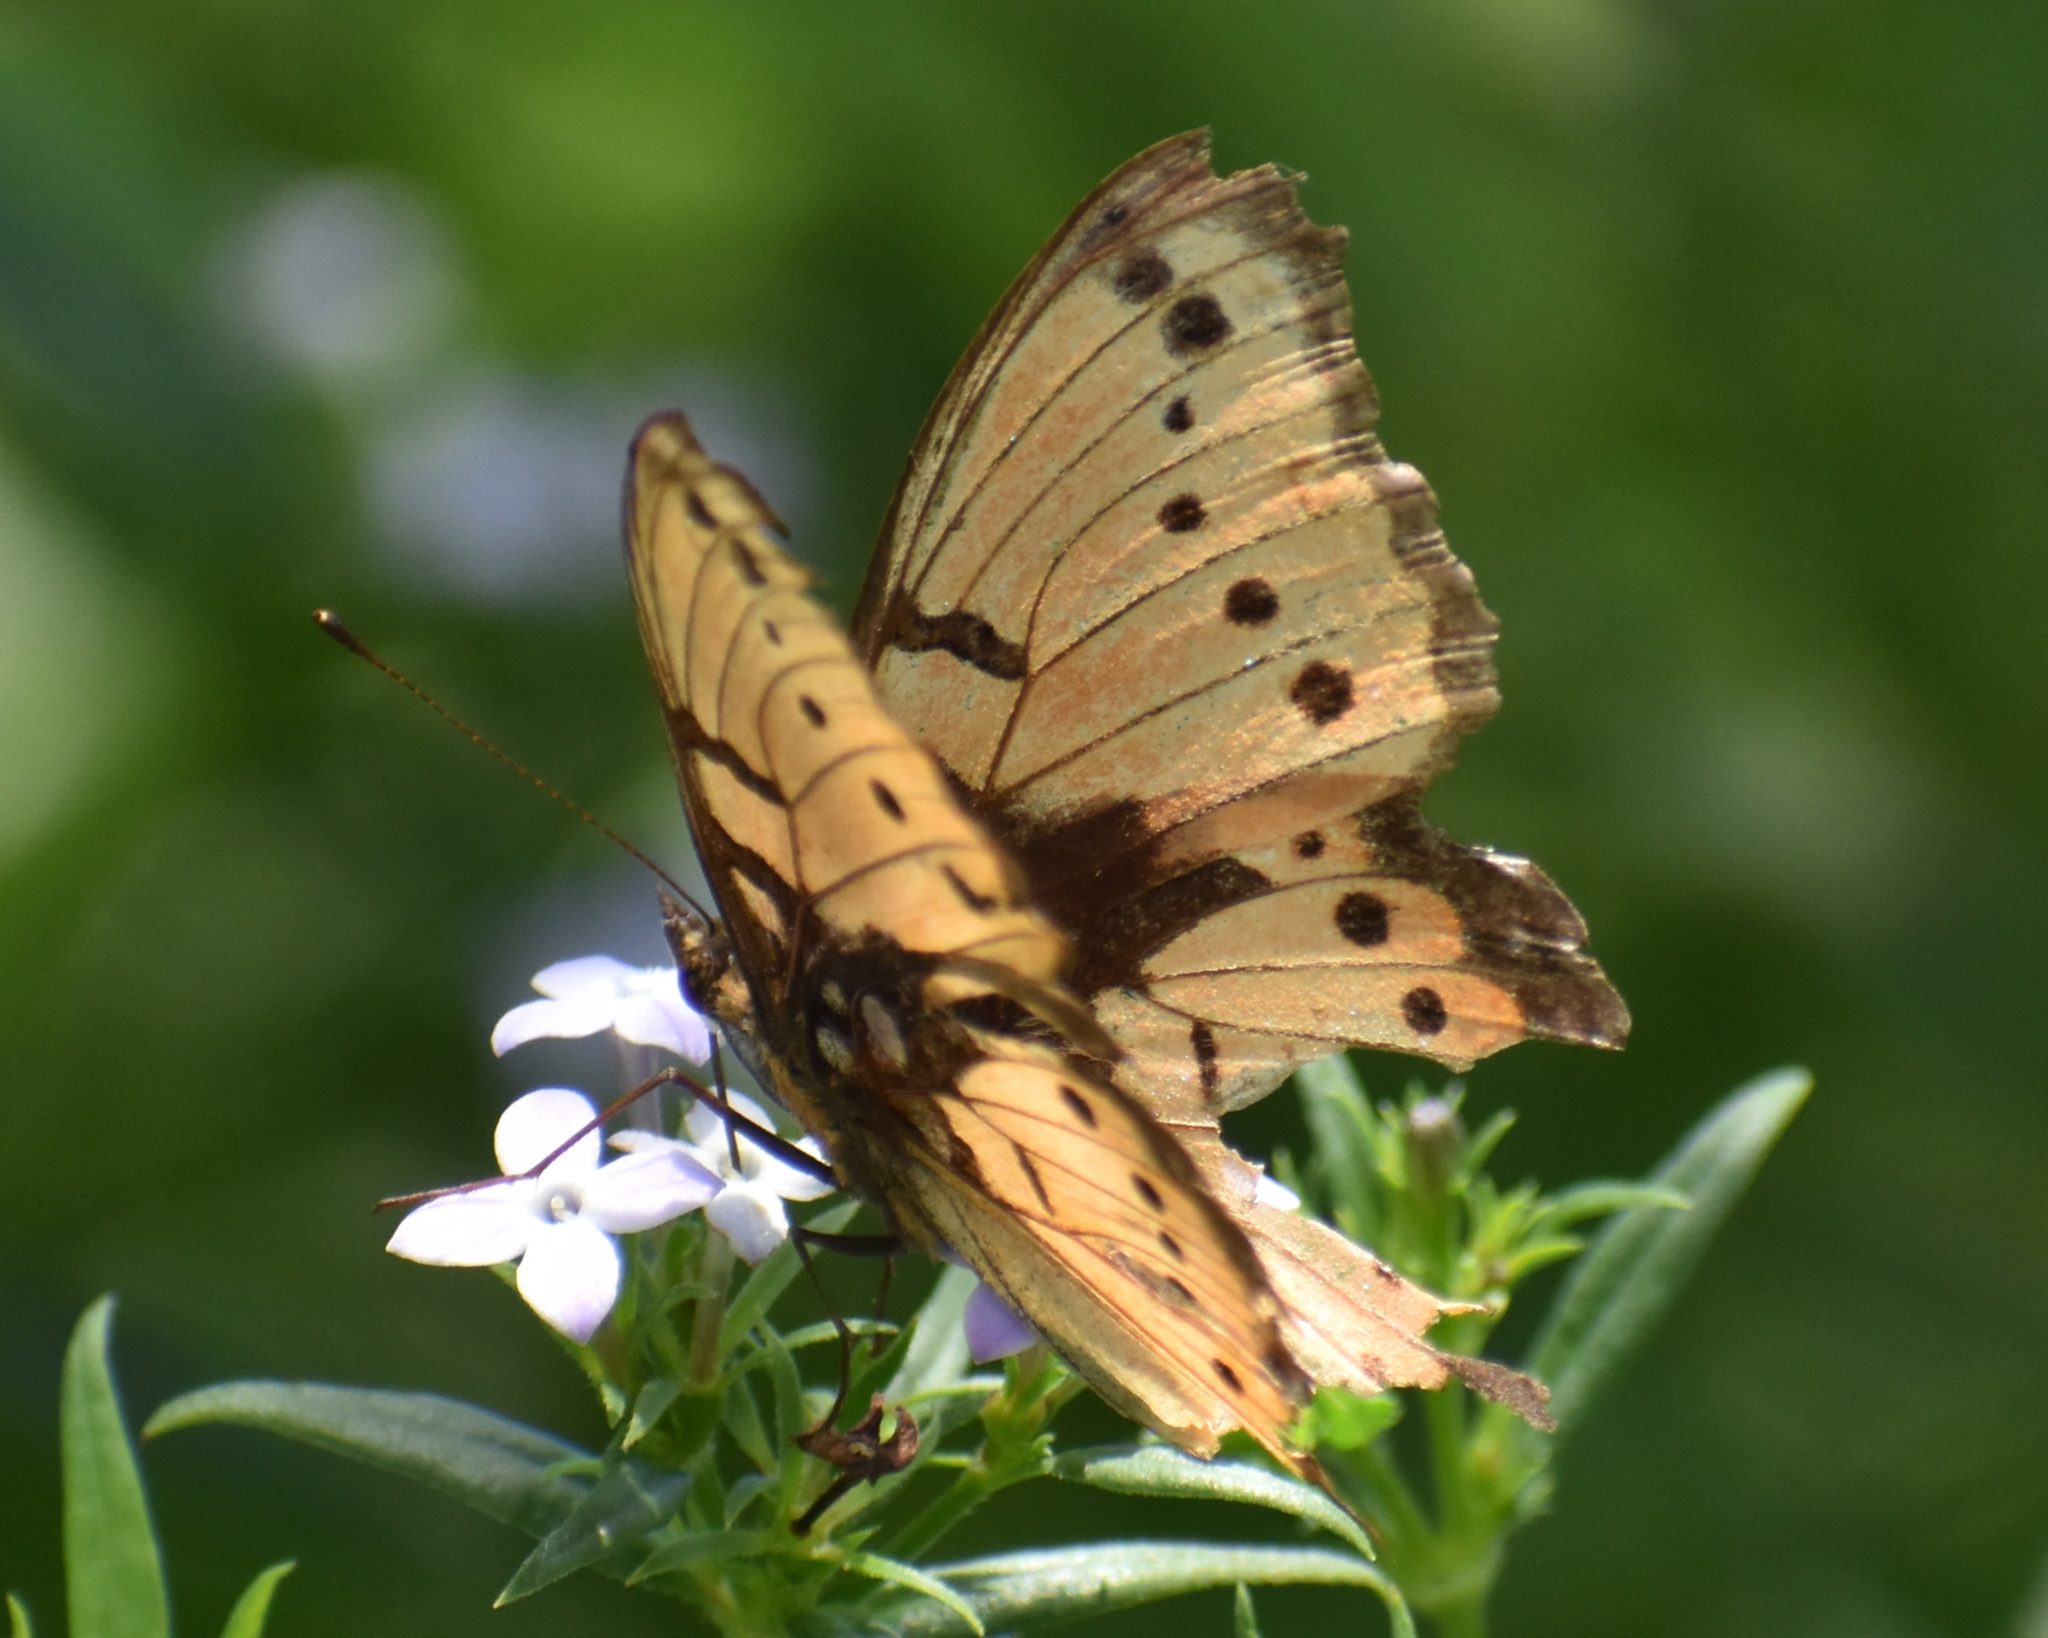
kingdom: Animalia
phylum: Arthropoda
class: Insecta
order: Lepidoptera
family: Nymphalidae
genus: Precis
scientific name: Precis octavia
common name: Gaudy commodore
